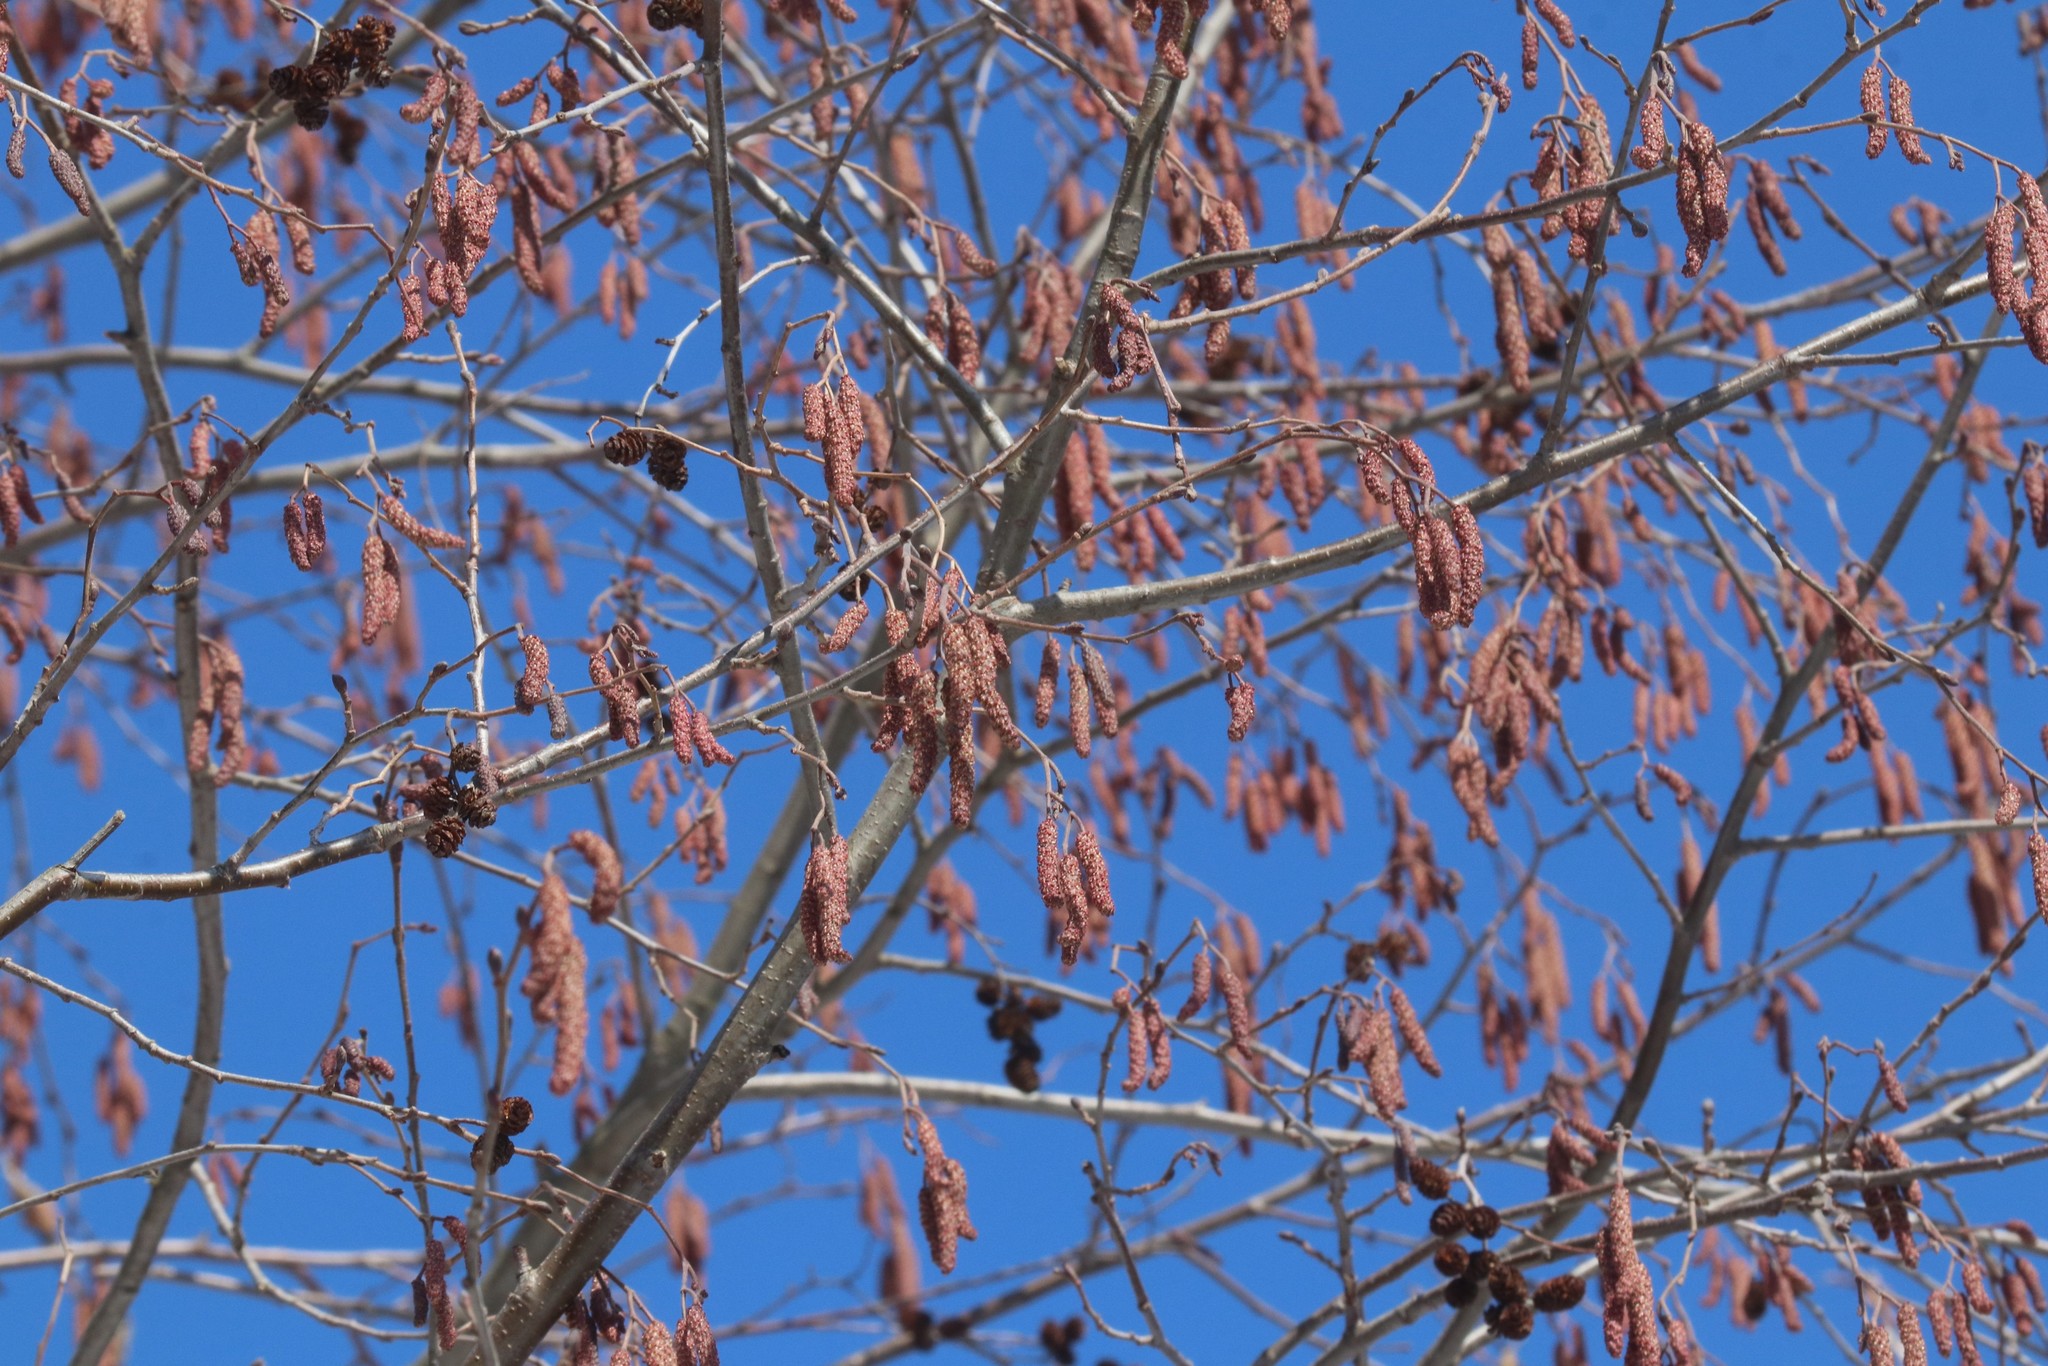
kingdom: Plantae
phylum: Tracheophyta
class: Magnoliopsida
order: Fagales
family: Betulaceae
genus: Alnus
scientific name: Alnus incana
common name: Grey alder
